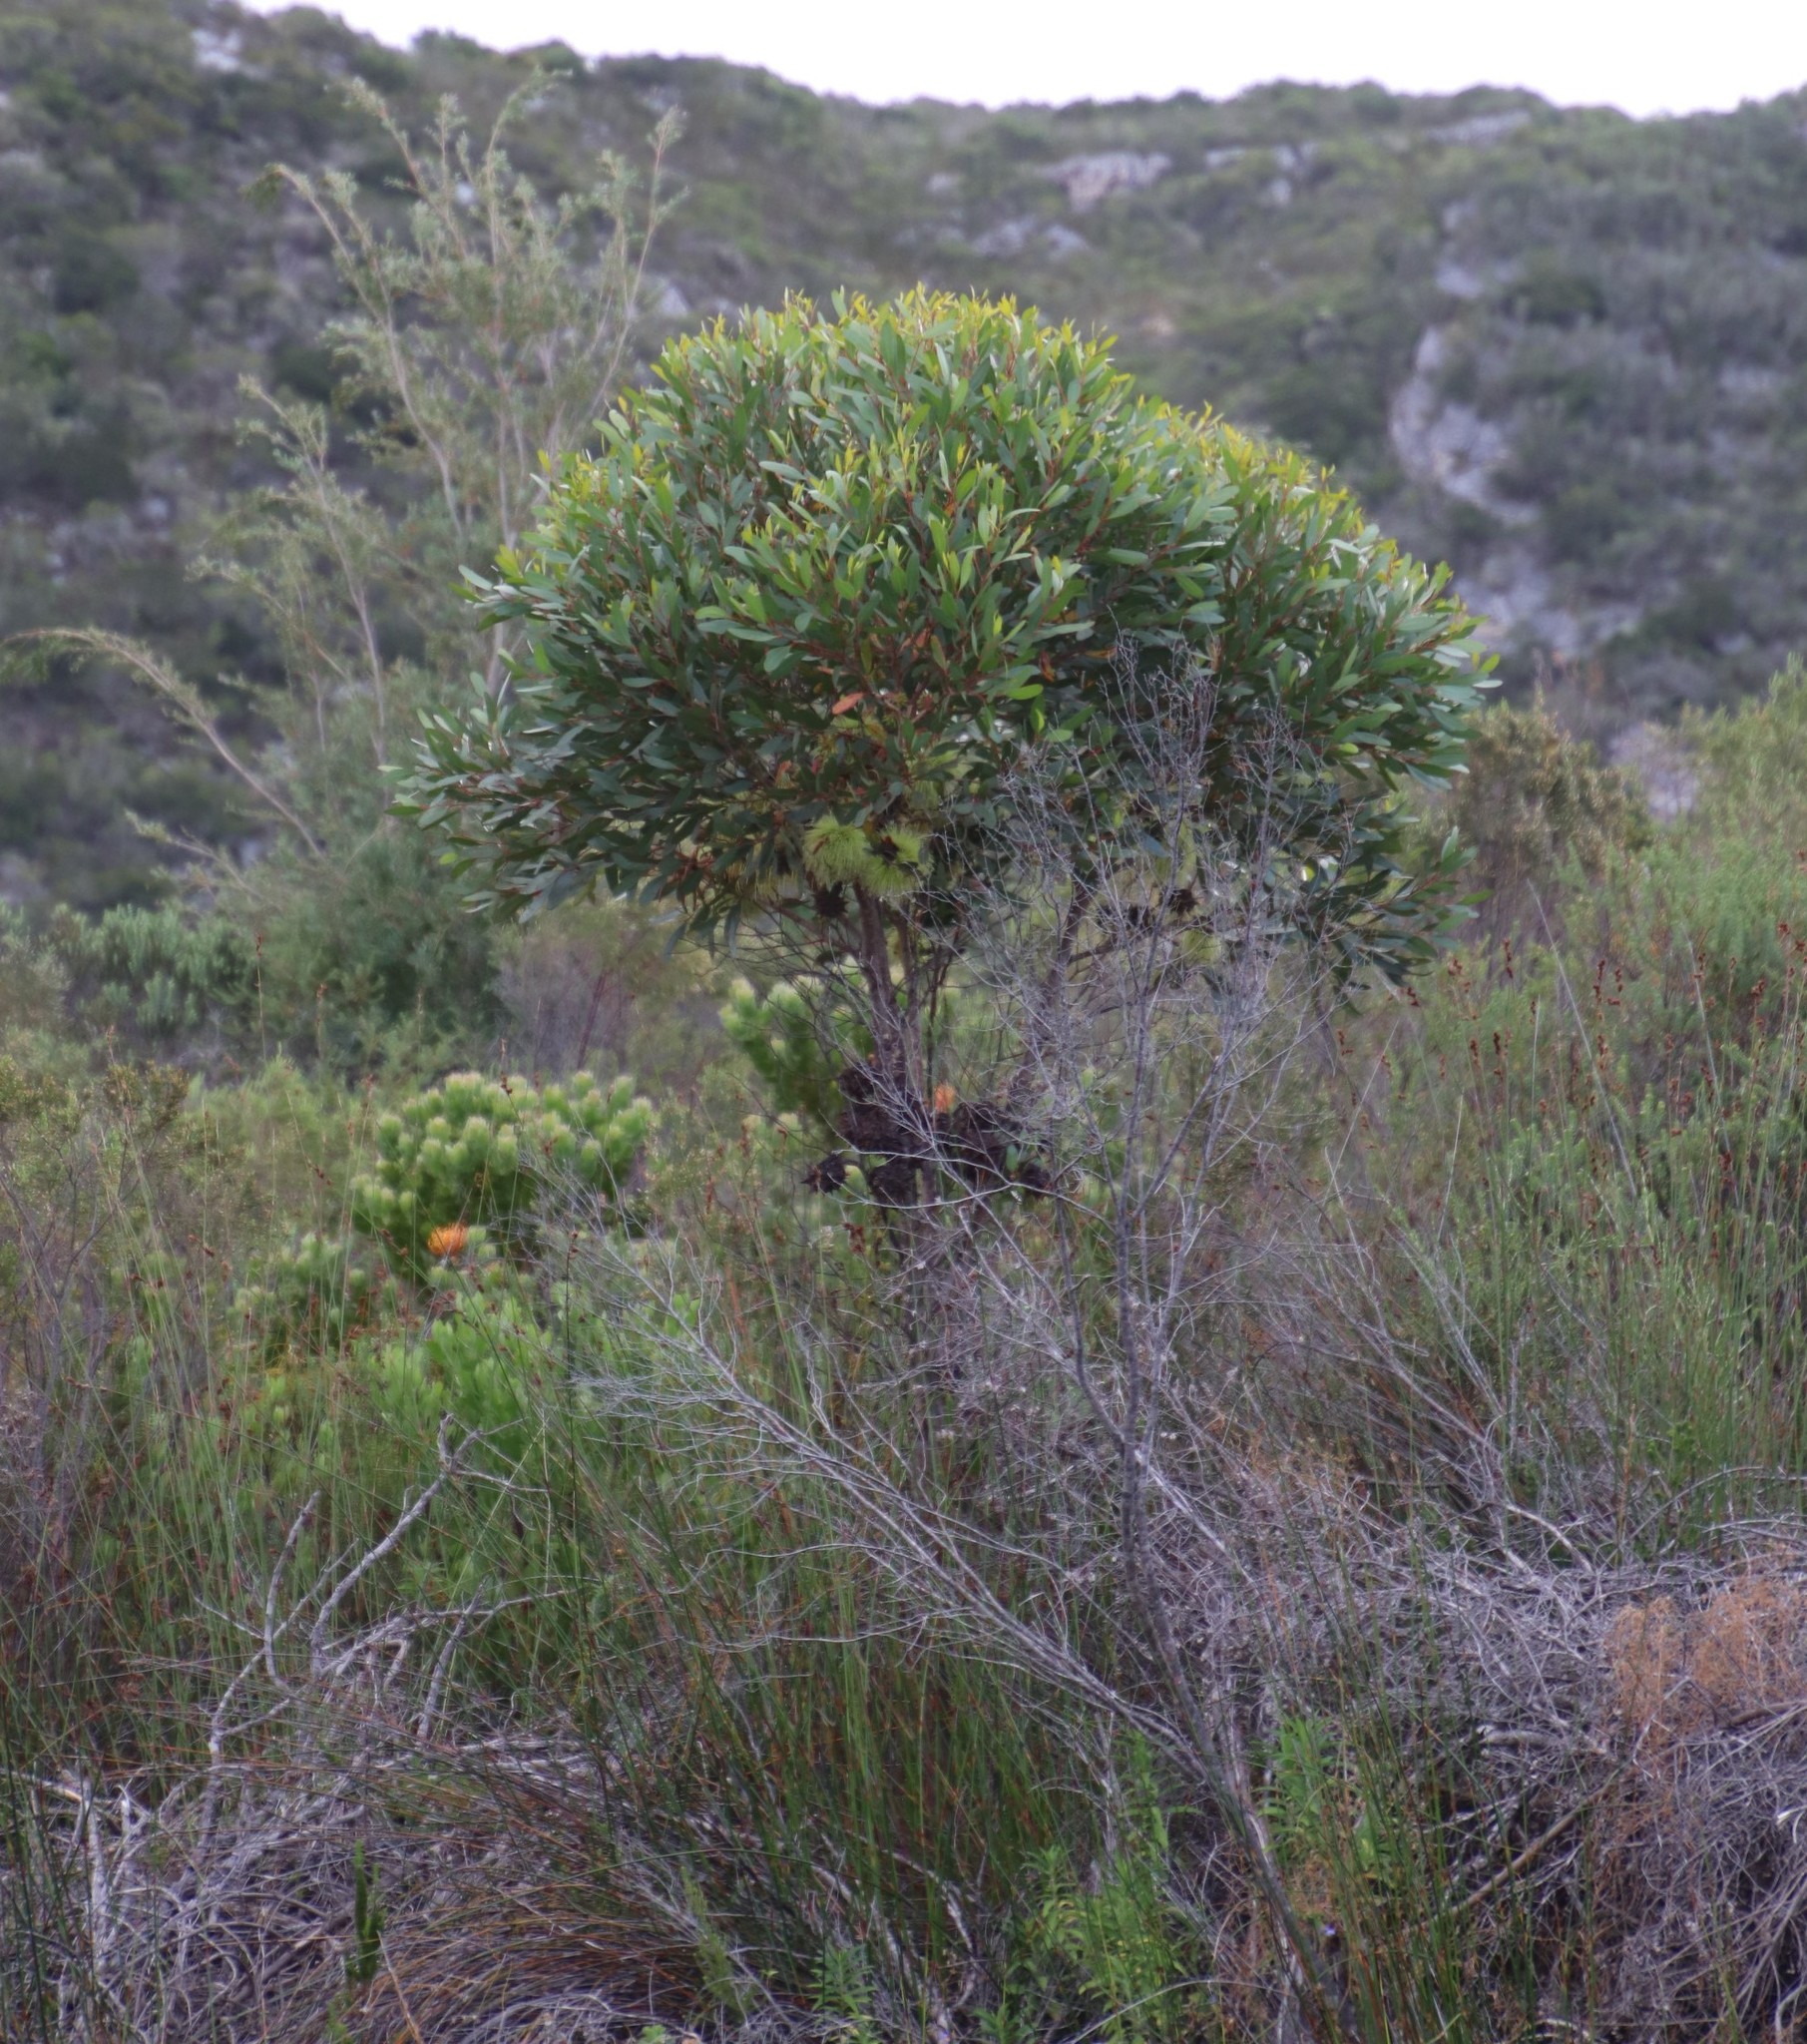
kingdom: Plantae
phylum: Tracheophyta
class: Magnoliopsida
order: Myrtales
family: Myrtaceae
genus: Eucalyptus
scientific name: Eucalyptus conferruminata
